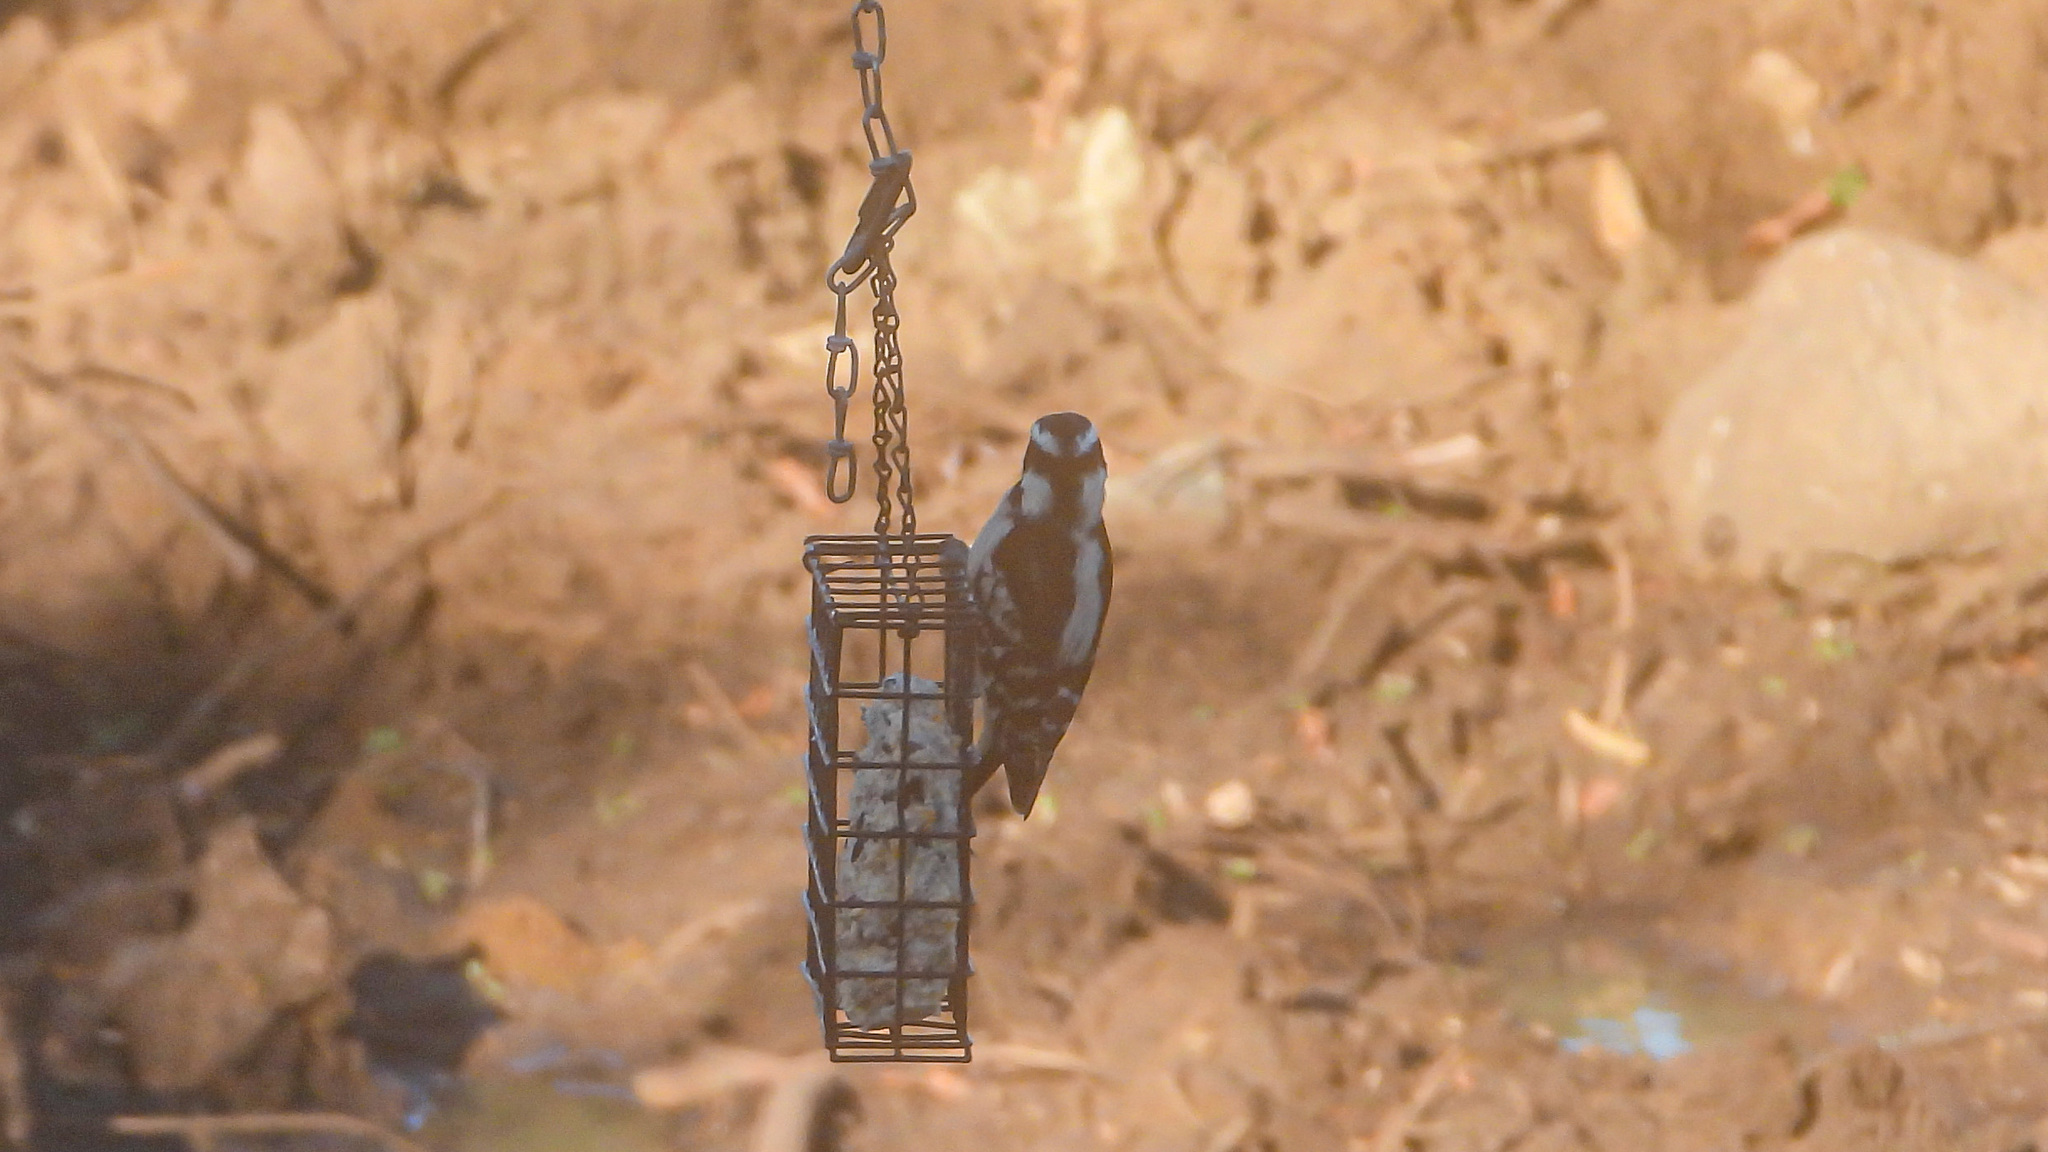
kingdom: Animalia
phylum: Chordata
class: Aves
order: Piciformes
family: Picidae
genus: Dryobates
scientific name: Dryobates pubescens
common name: Downy woodpecker
